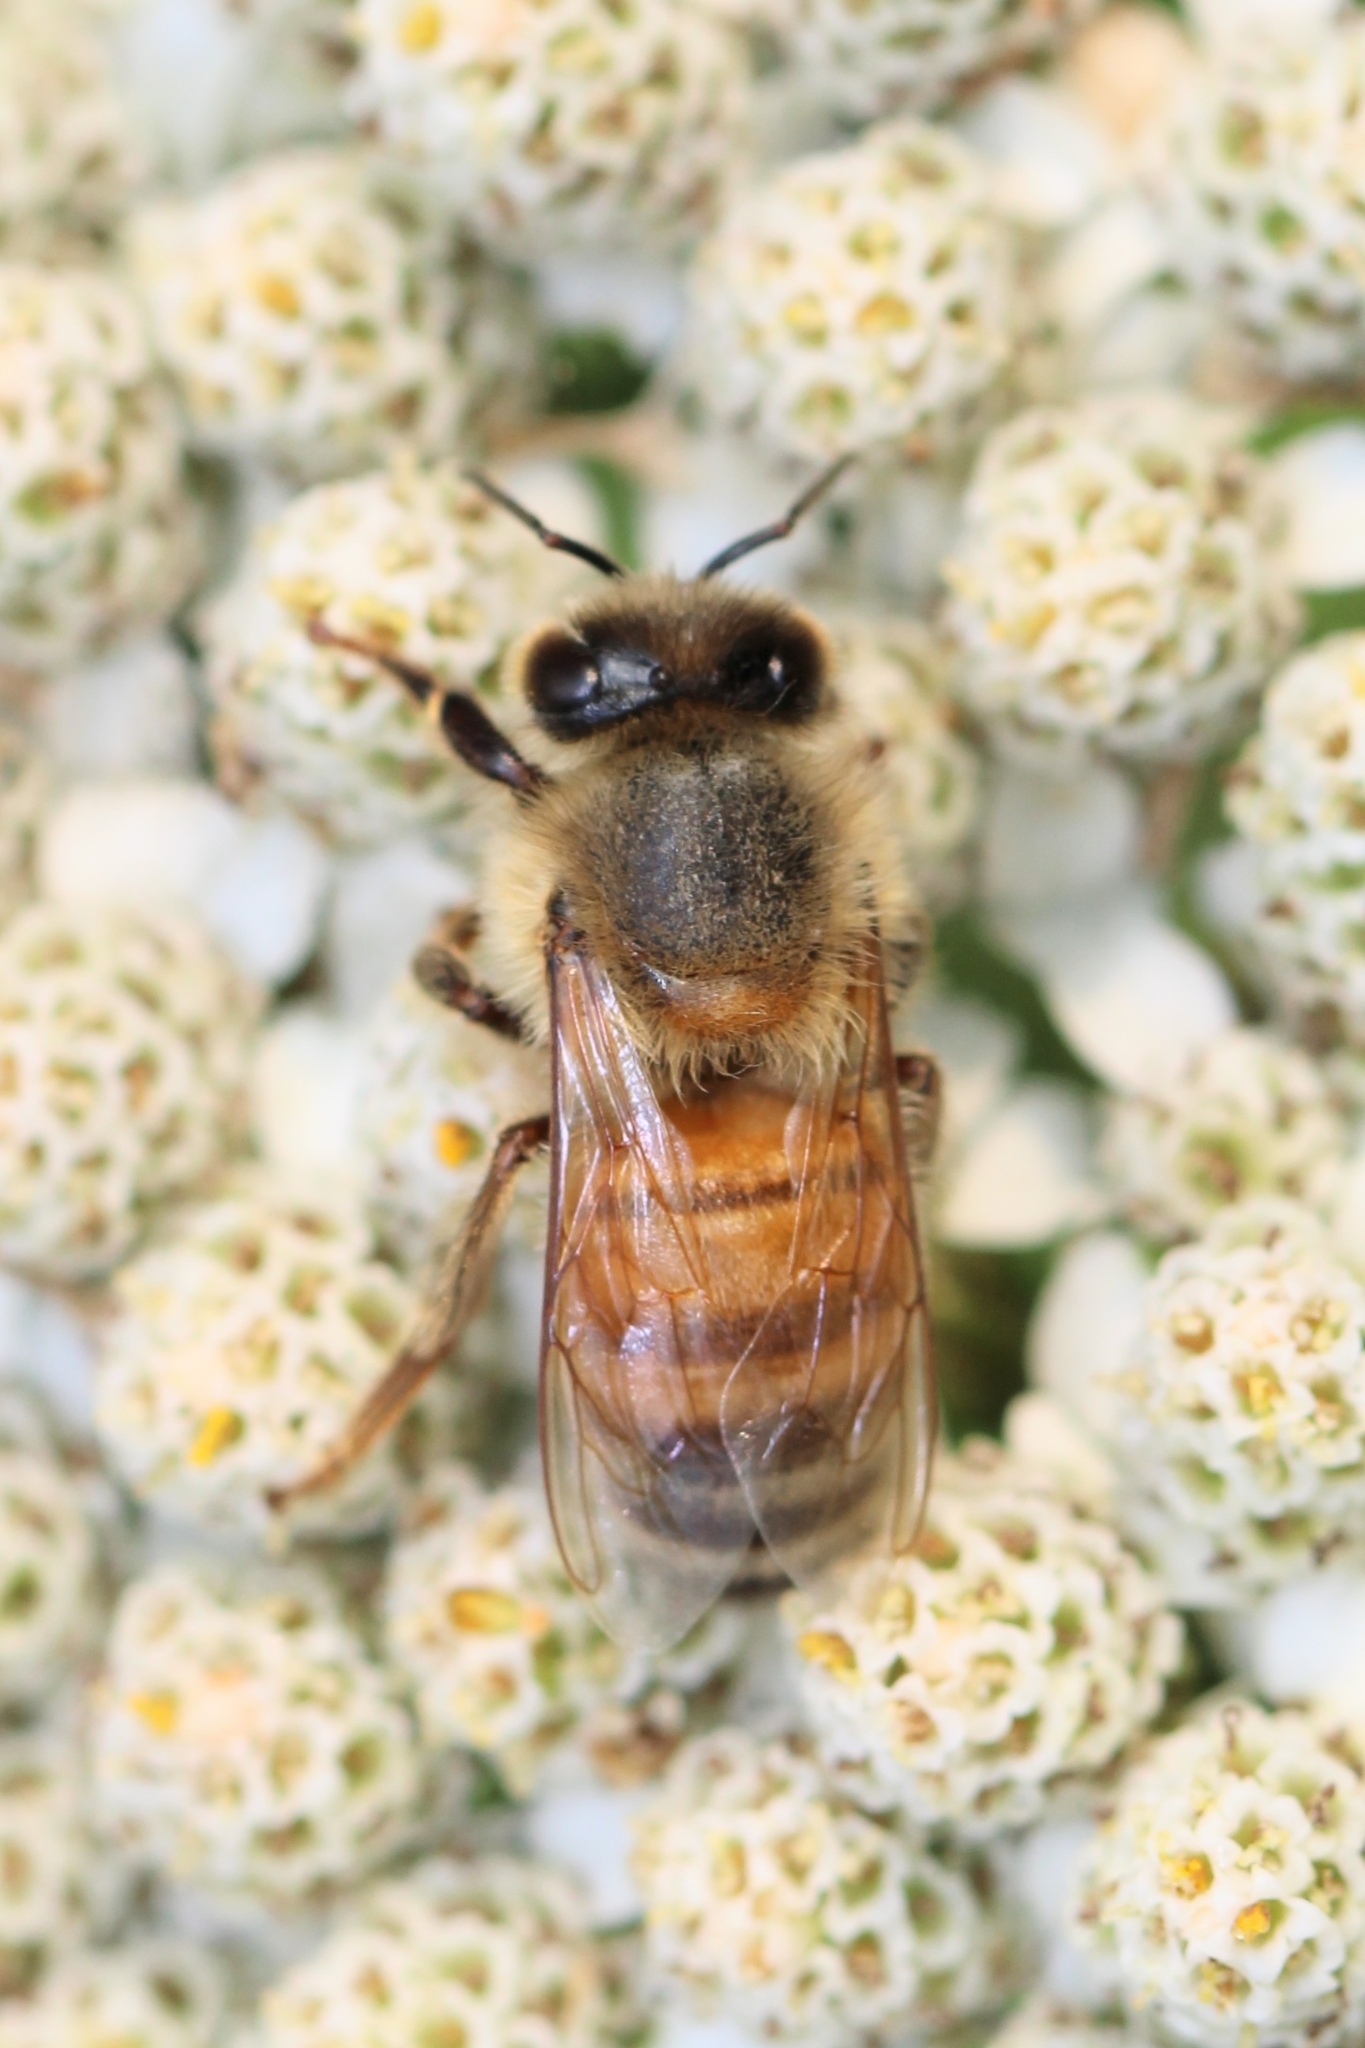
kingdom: Animalia
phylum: Arthropoda
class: Insecta
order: Hymenoptera
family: Apidae
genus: Apis
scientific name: Apis mellifera
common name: Honey bee
